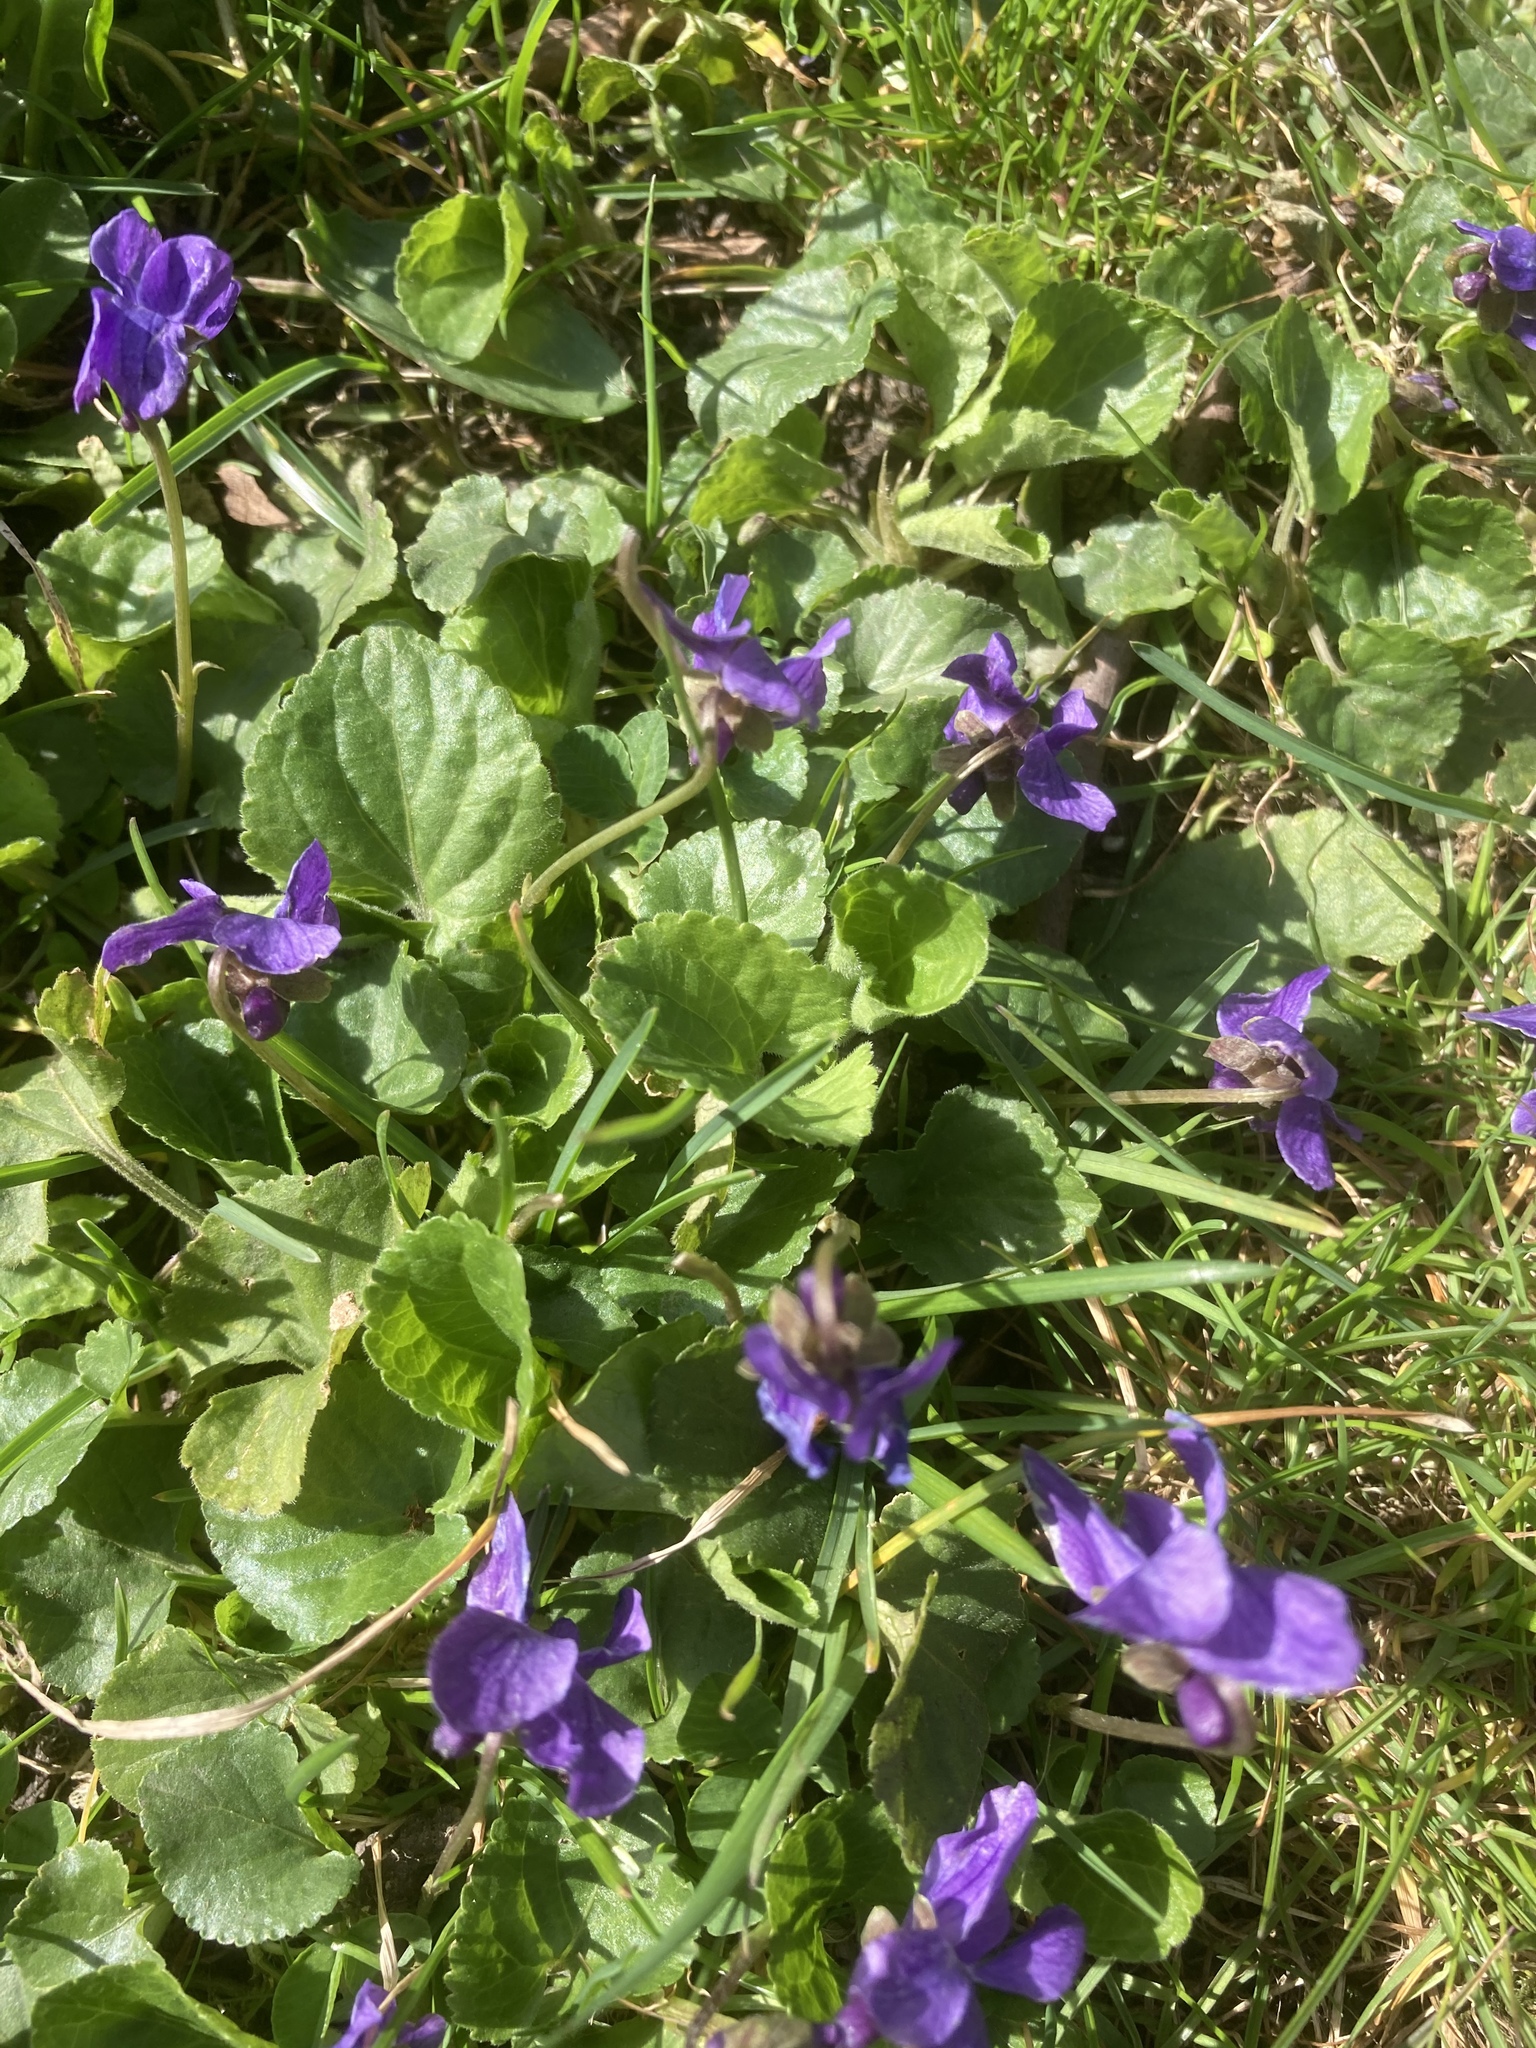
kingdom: Plantae
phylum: Tracheophyta
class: Magnoliopsida
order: Malpighiales
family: Violaceae
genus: Viola
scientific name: Viola odorata
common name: Sweet violet
